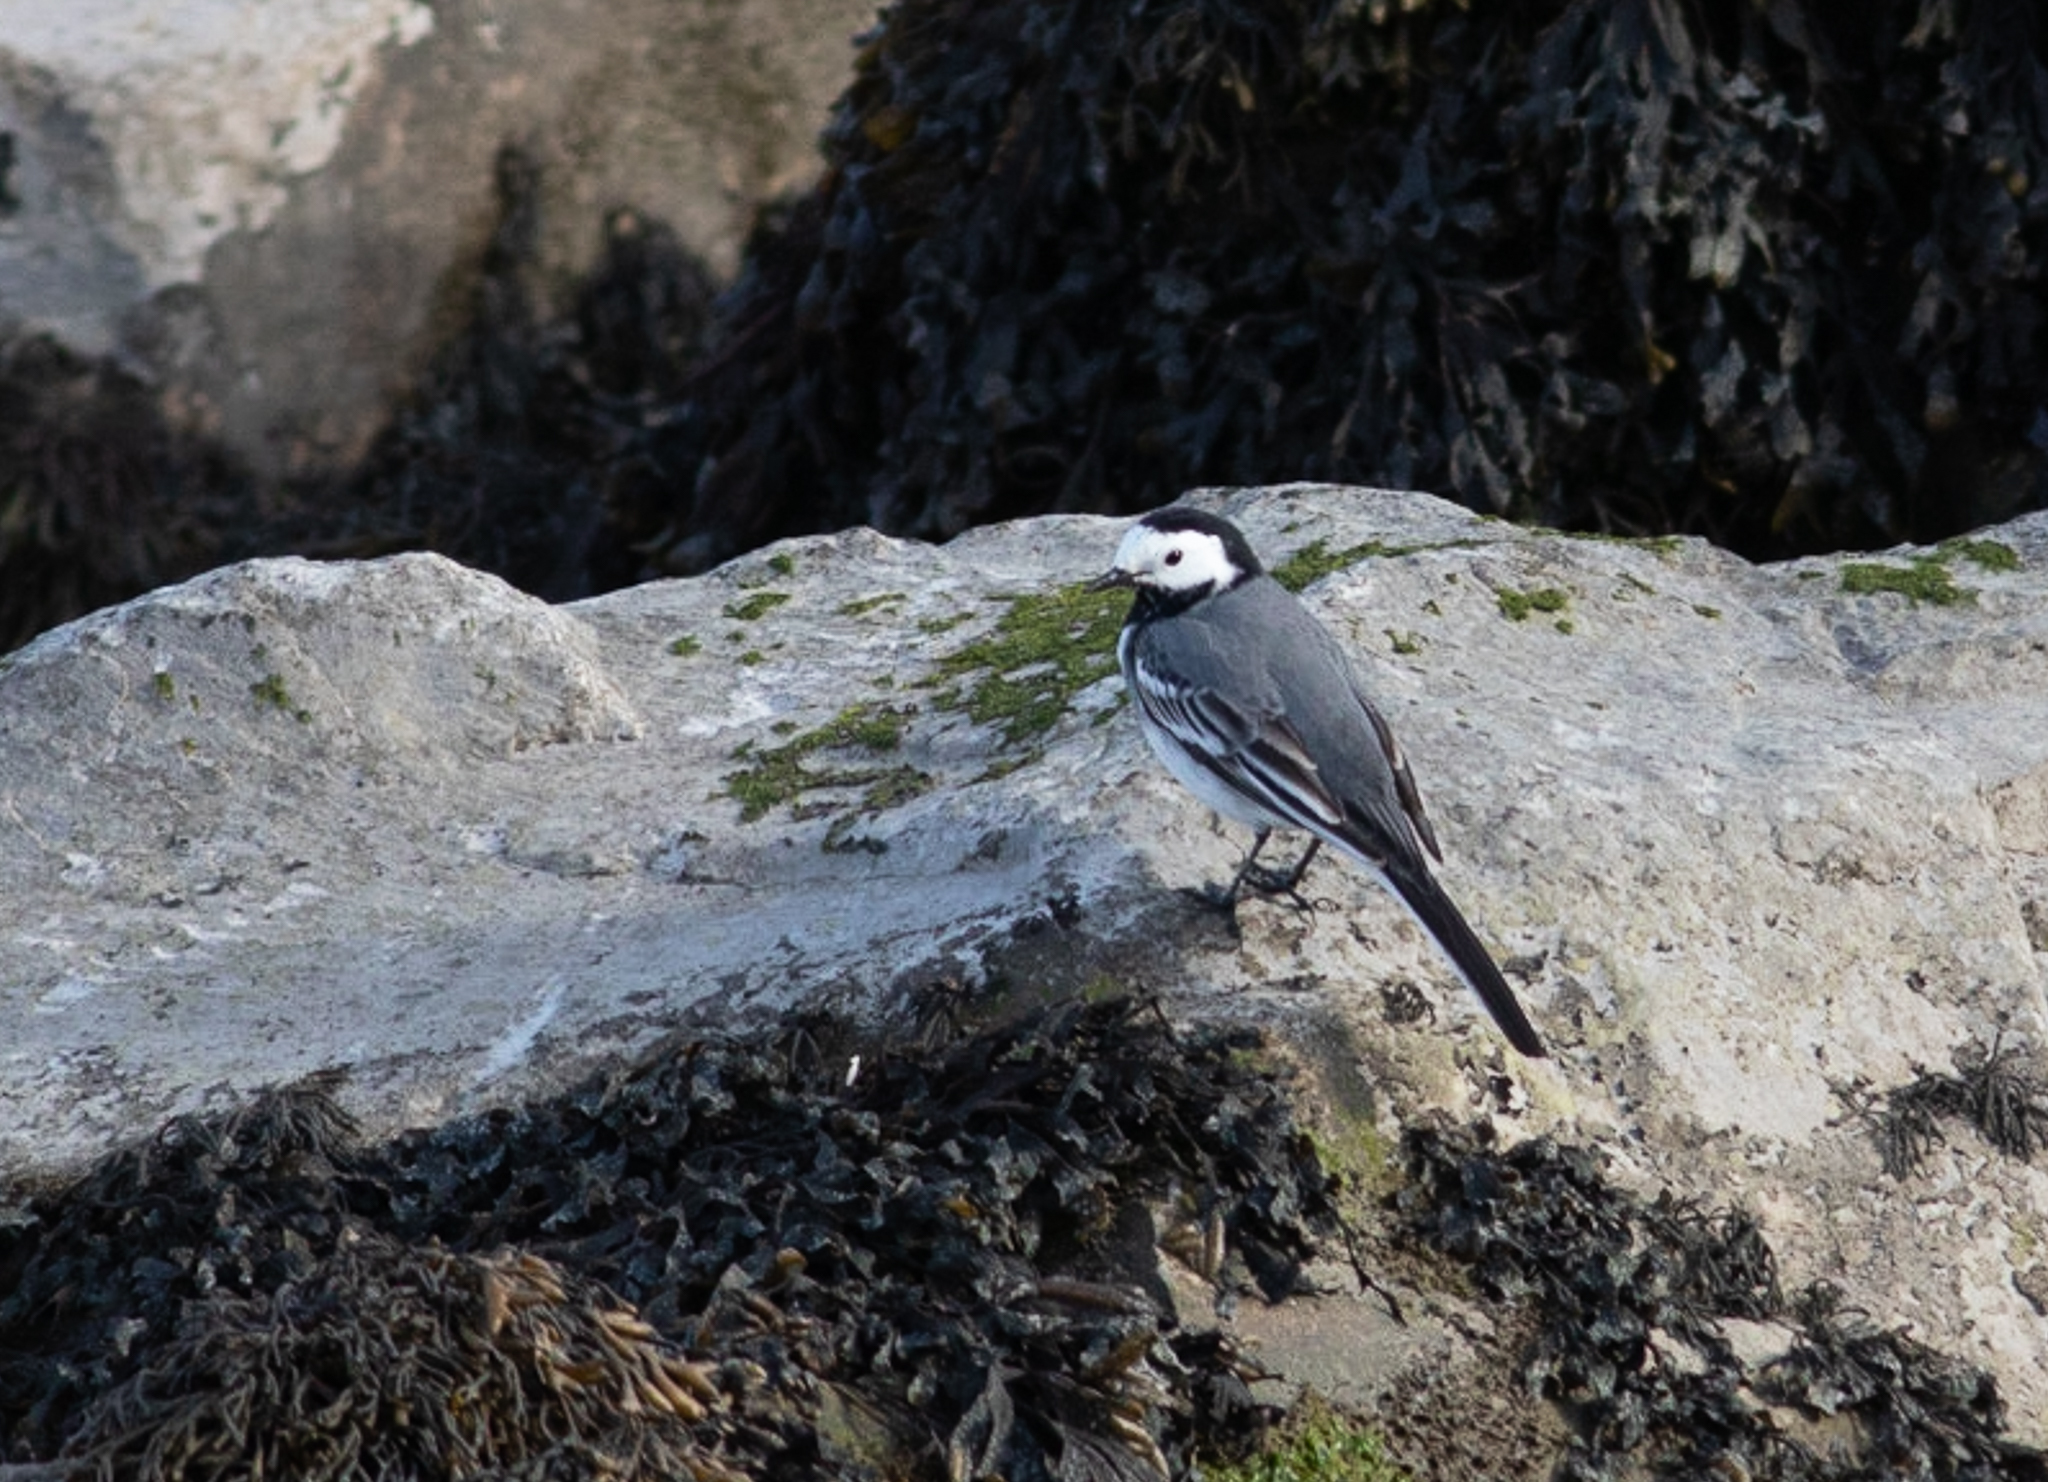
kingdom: Animalia
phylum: Chordata
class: Aves
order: Passeriformes
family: Motacillidae
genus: Motacilla
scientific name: Motacilla alba
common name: White wagtail
